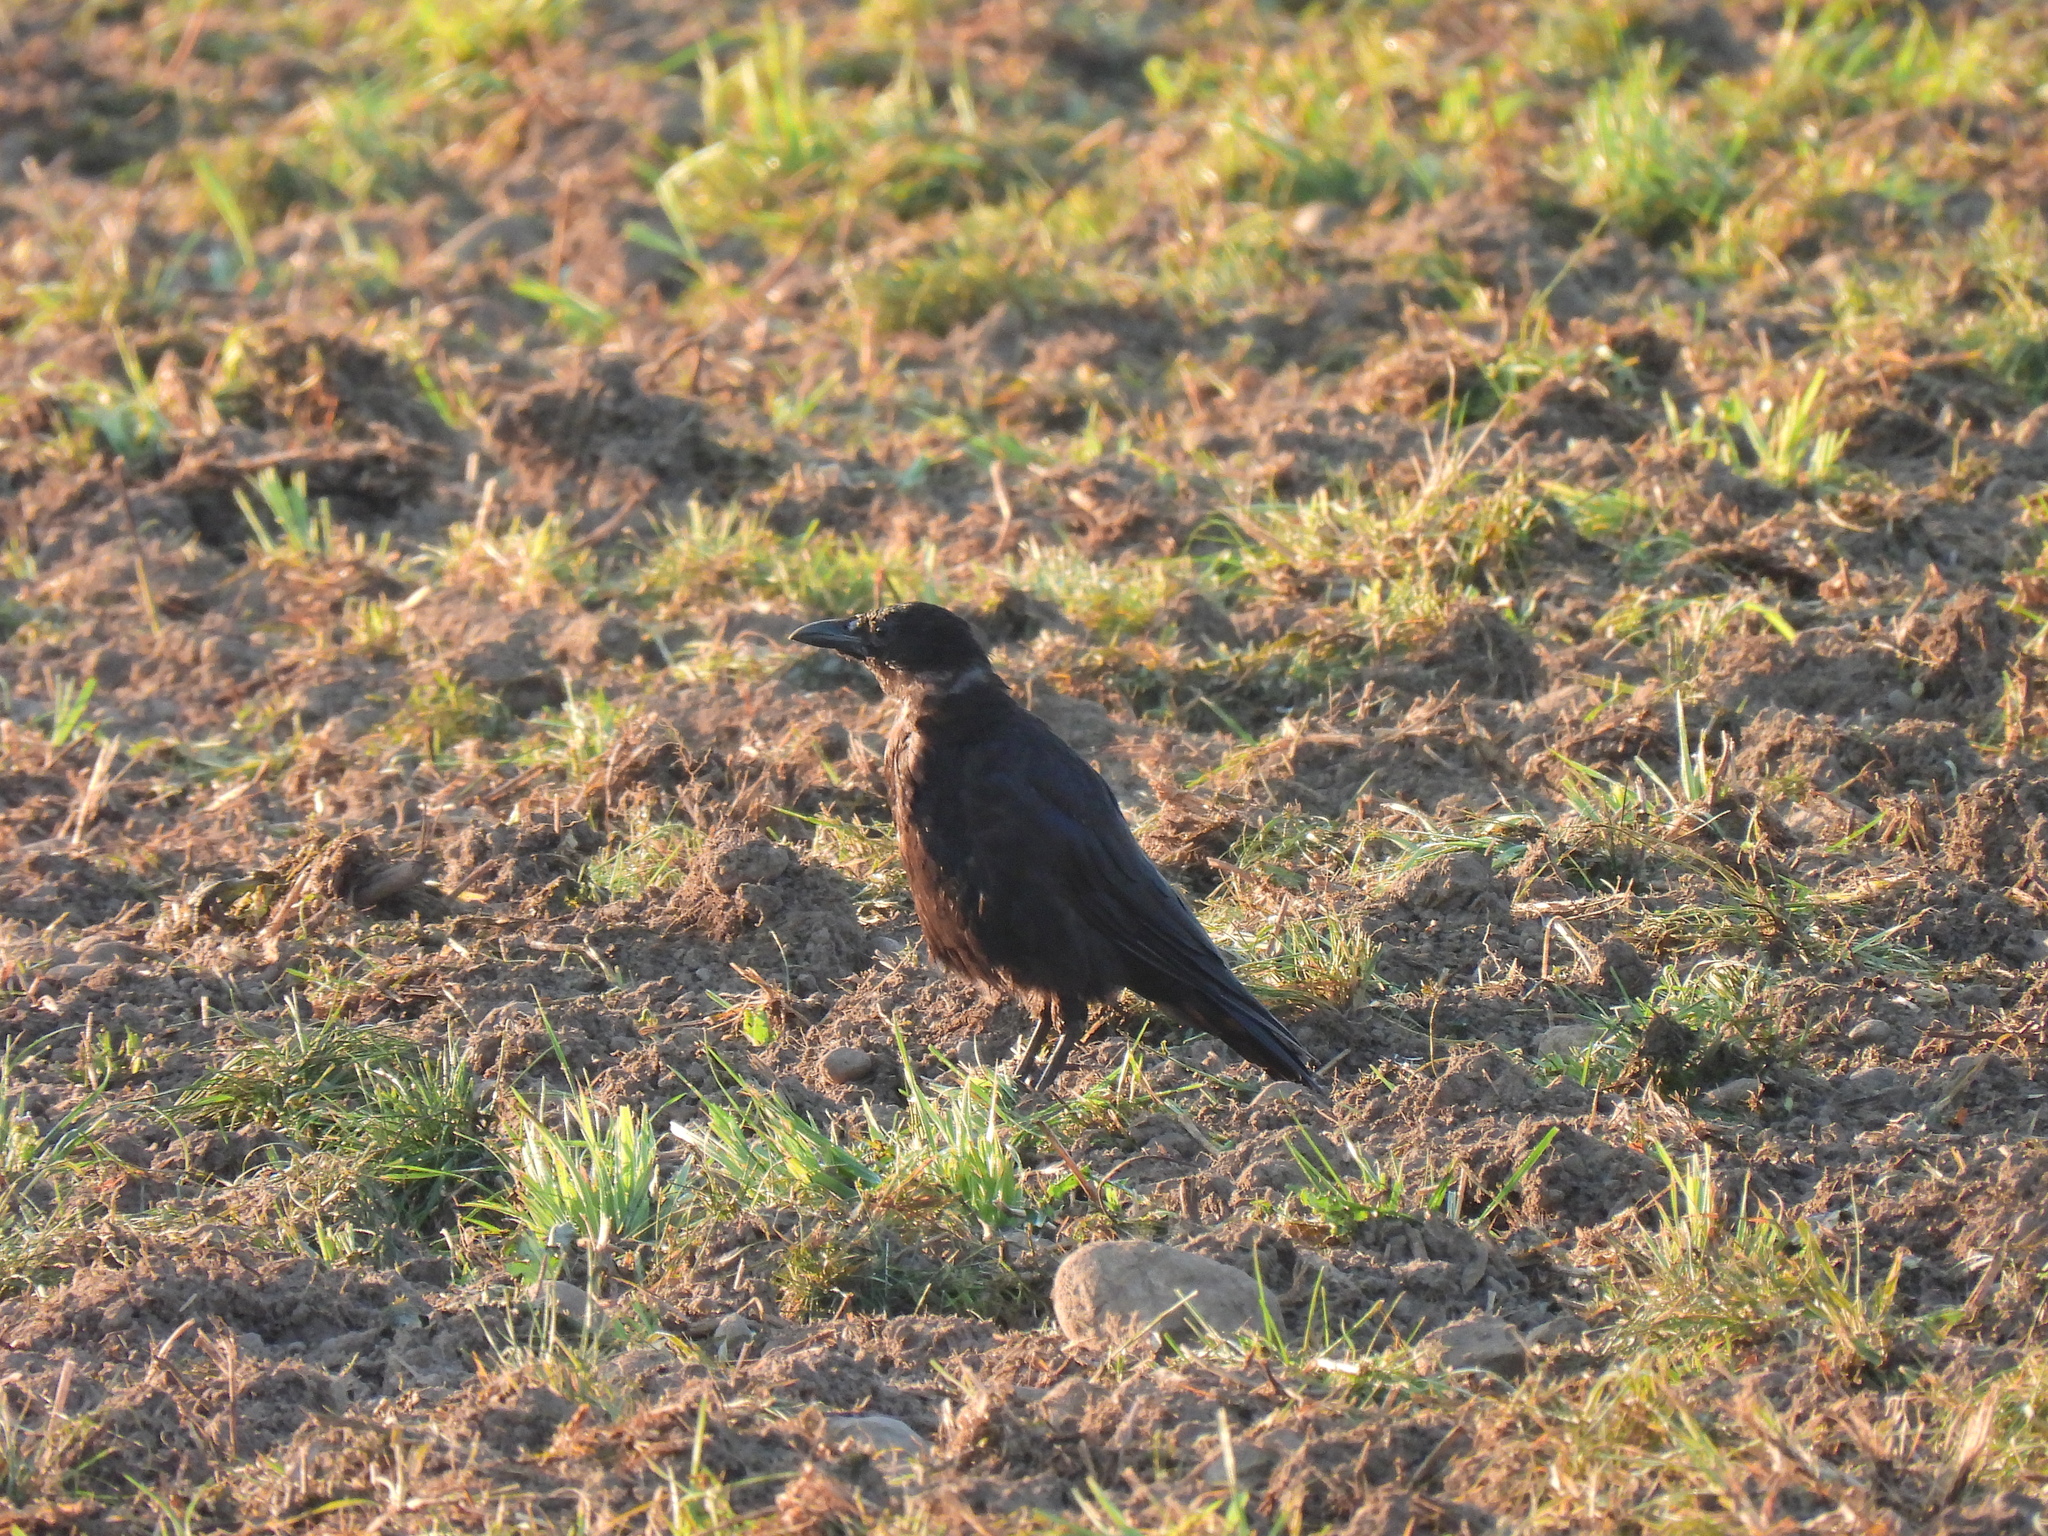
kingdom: Animalia
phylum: Chordata
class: Aves
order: Passeriformes
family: Corvidae
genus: Corvus
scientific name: Corvus corone
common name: Carrion crow
